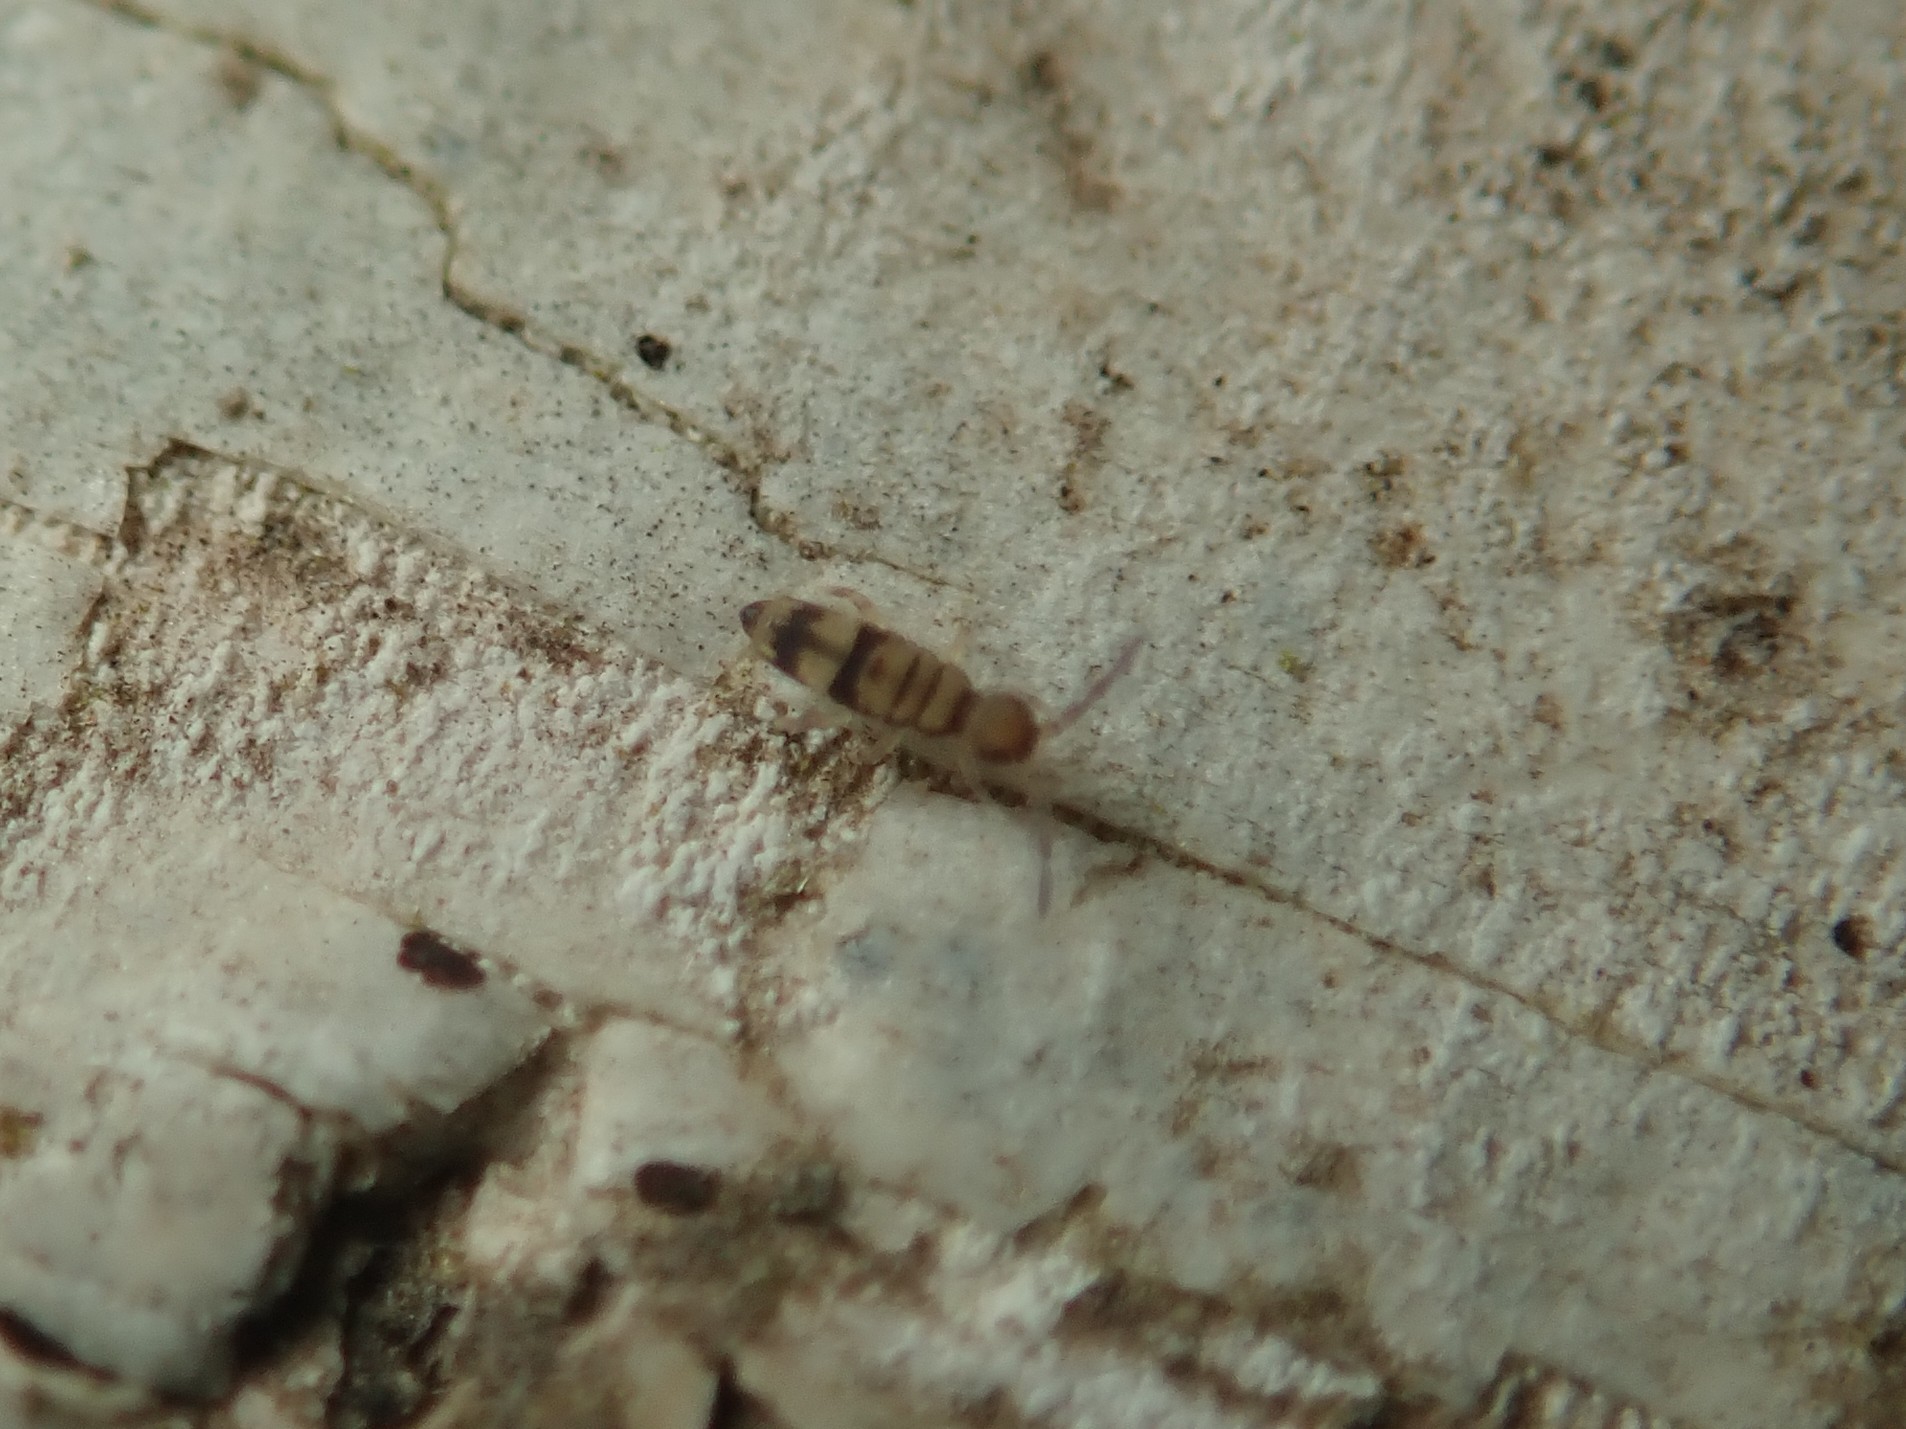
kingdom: Animalia
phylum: Arthropoda
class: Collembola
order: Entomobryomorpha
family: Entomobryidae
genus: Entomobrya
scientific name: Entomobrya corticalis
